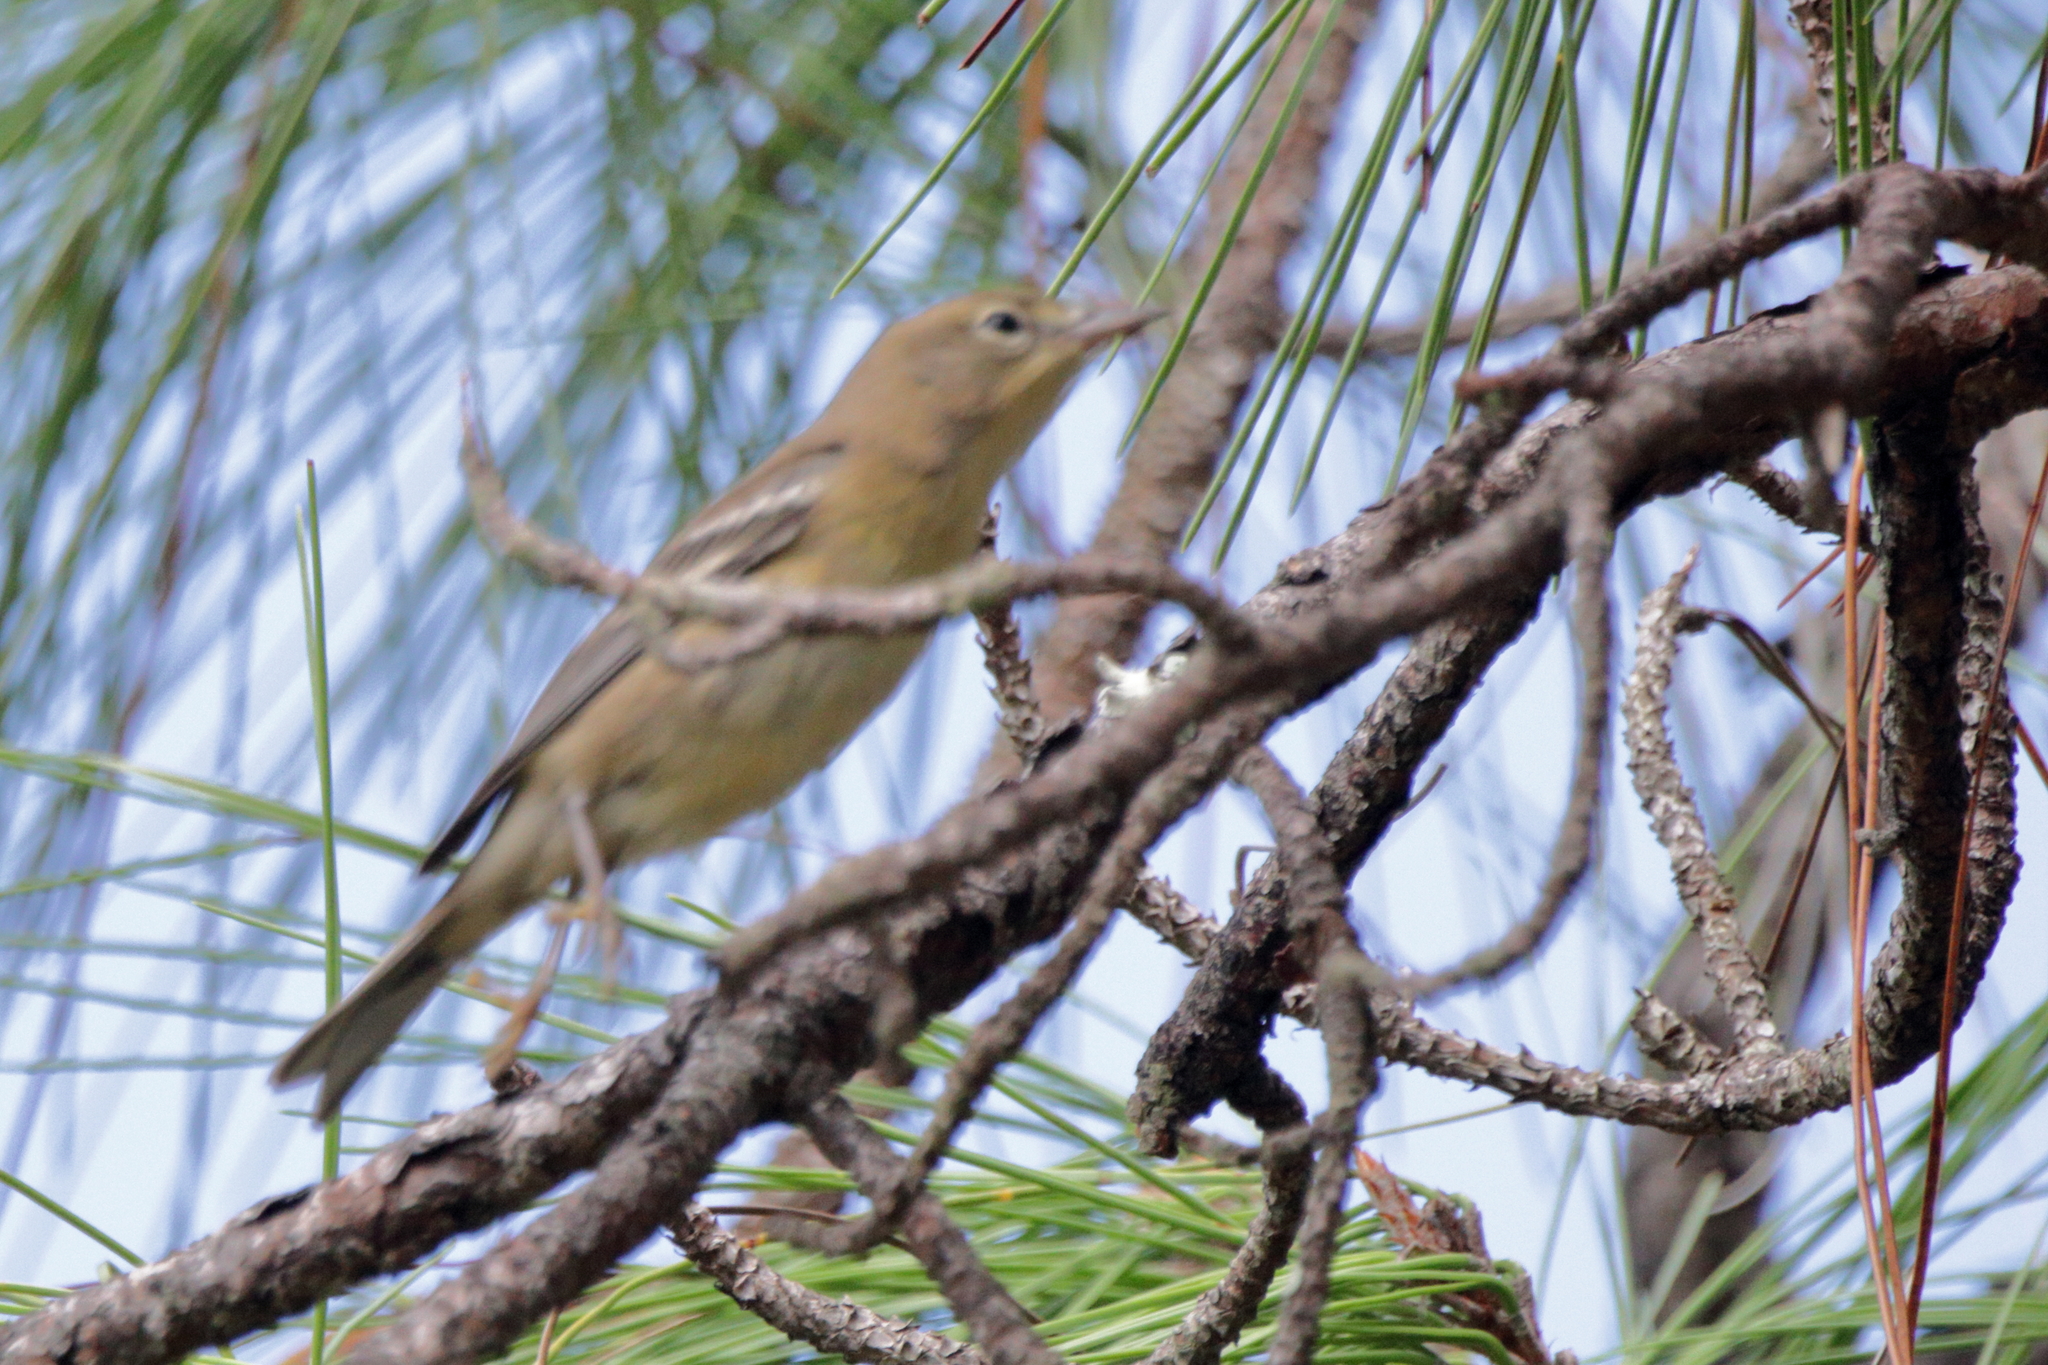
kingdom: Animalia
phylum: Chordata
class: Aves
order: Passeriformes
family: Parulidae
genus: Setophaga
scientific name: Setophaga pinus
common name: Pine warbler
